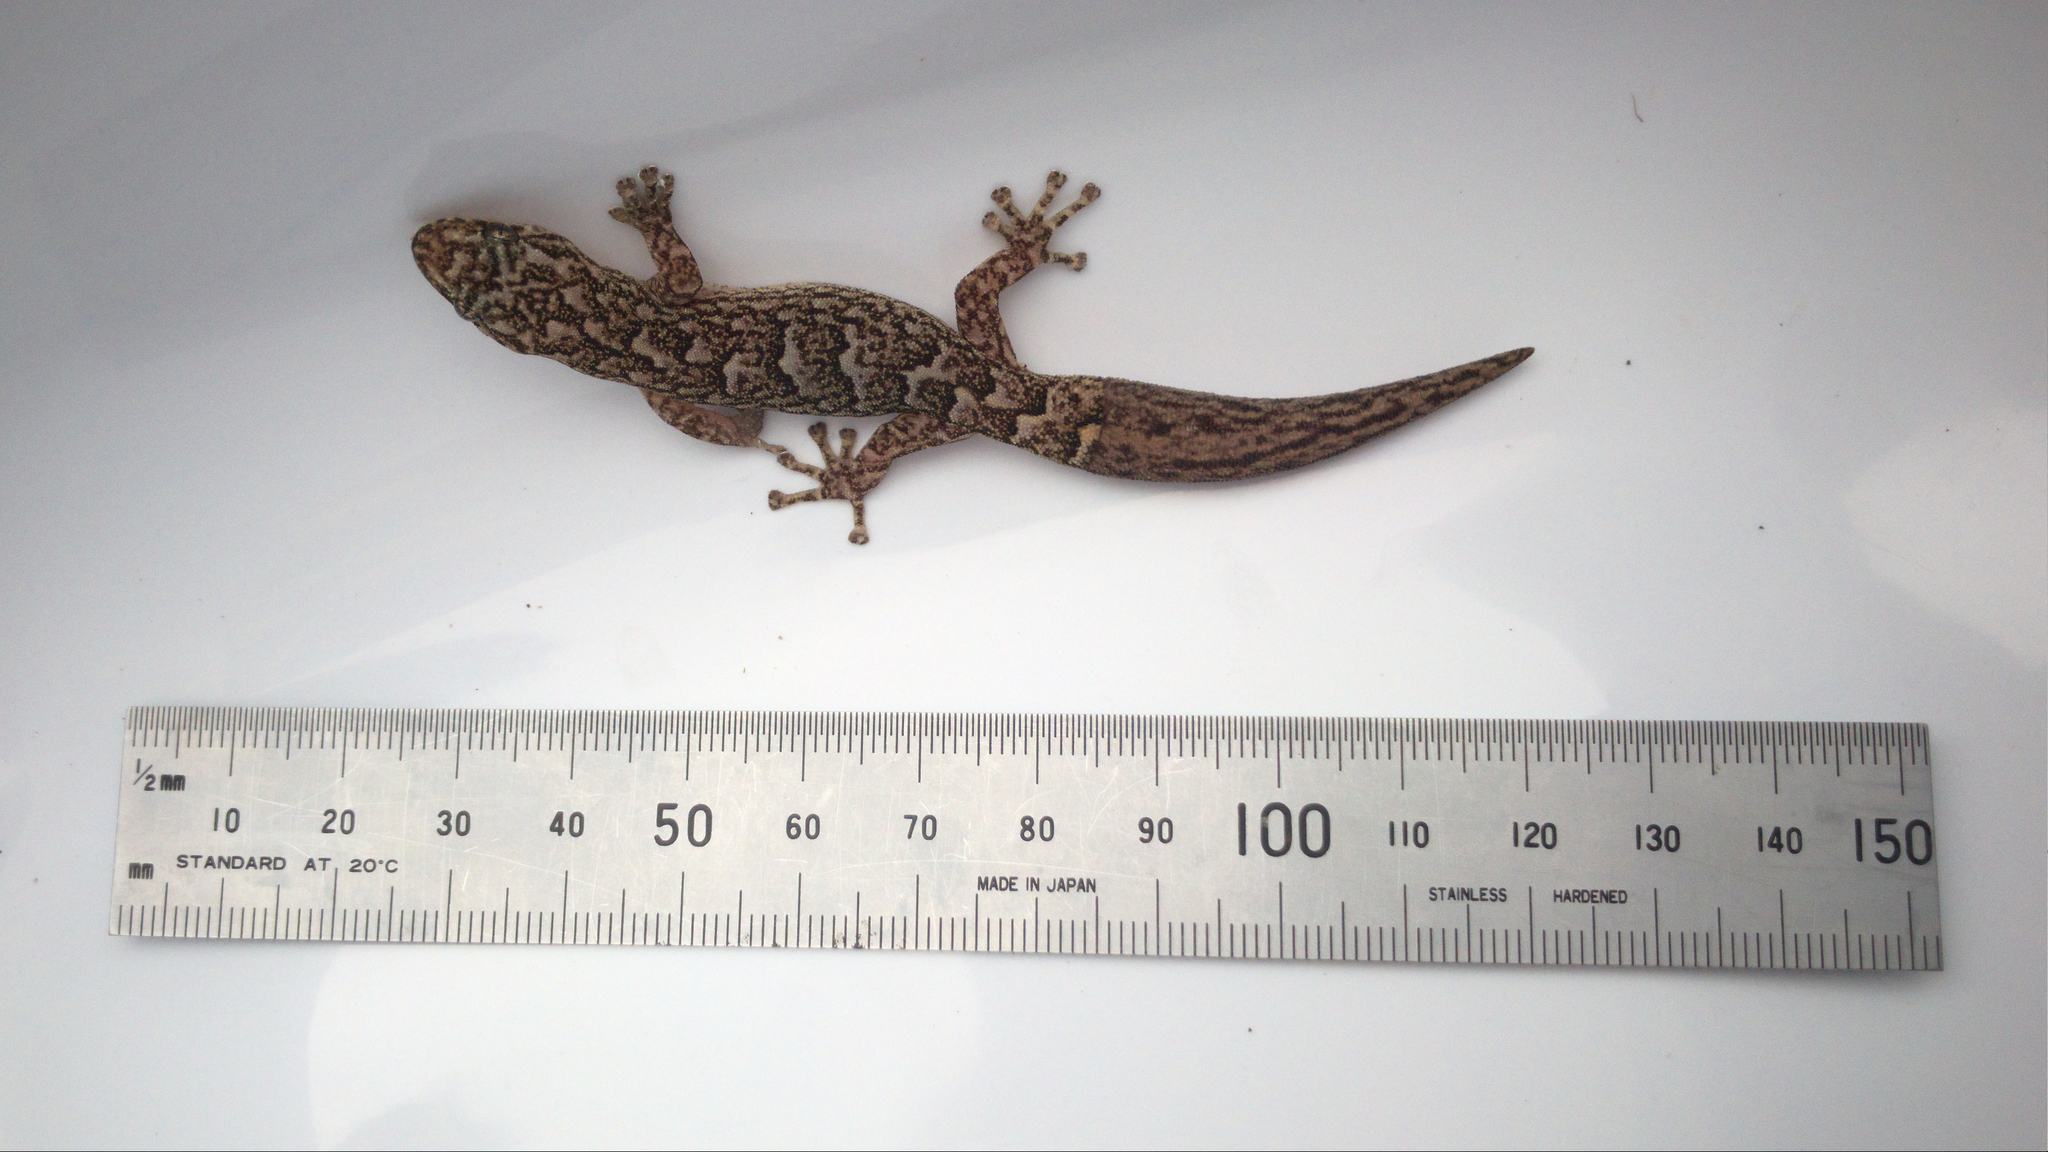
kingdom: Animalia
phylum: Chordata
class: Squamata
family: Gekkonidae
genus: Christinus
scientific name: Christinus marmoratus
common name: Marbled gecko
